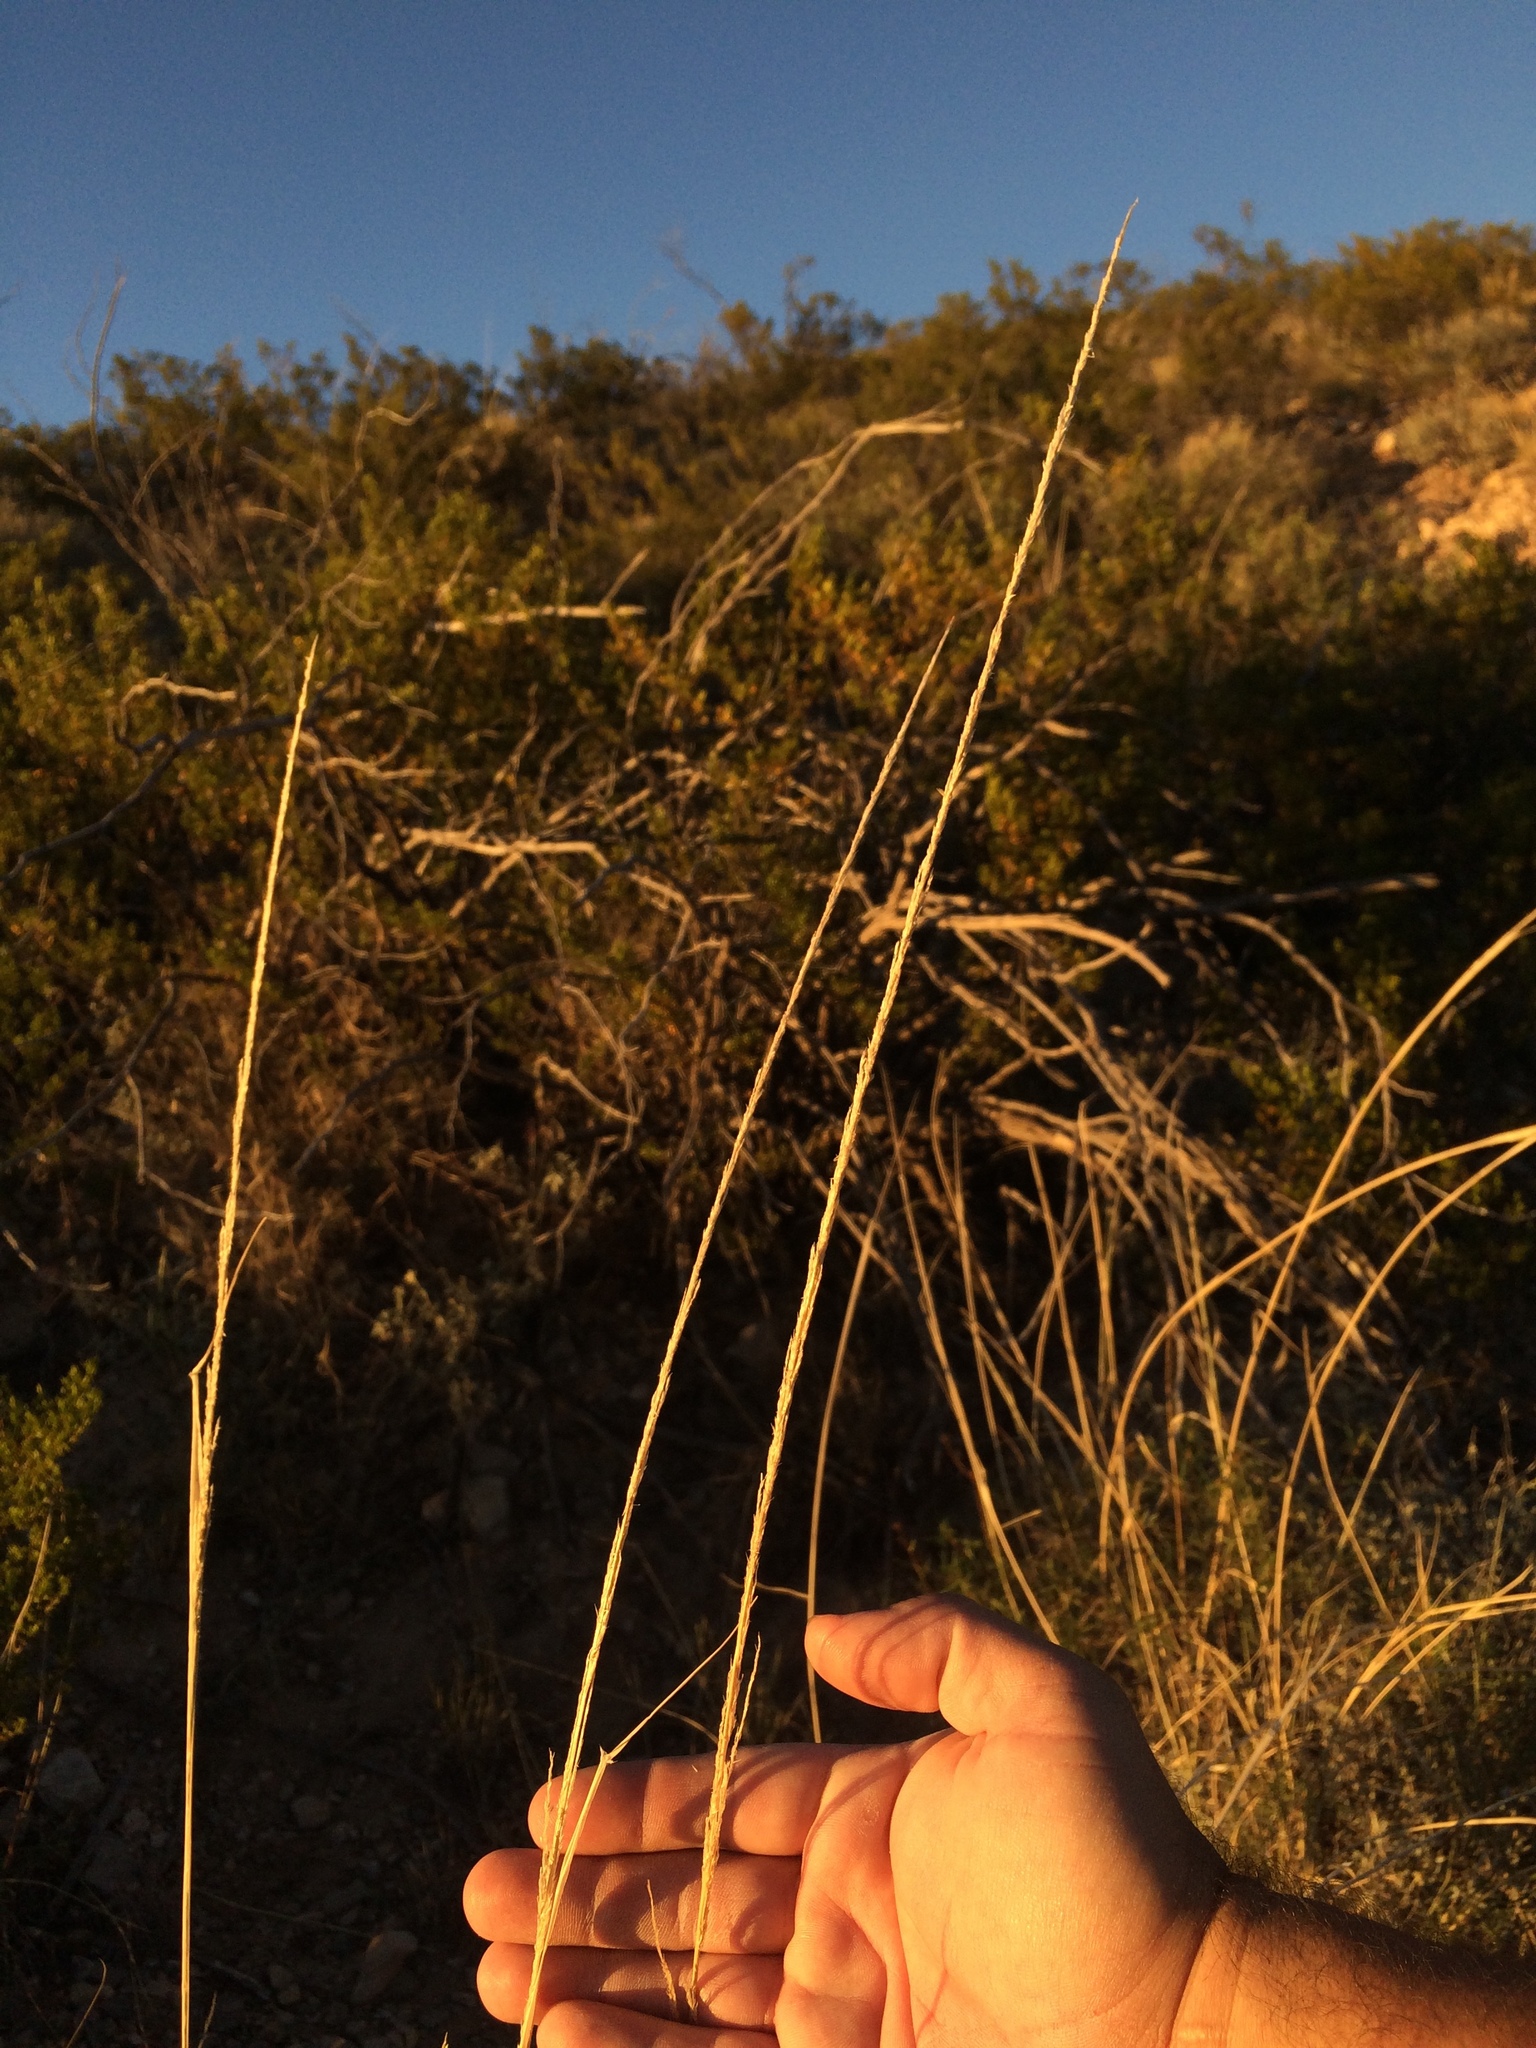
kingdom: Plantae
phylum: Tracheophyta
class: Liliopsida
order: Poales
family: Poaceae
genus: Sporobolus
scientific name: Sporobolus contractus
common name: Spike dropseed
